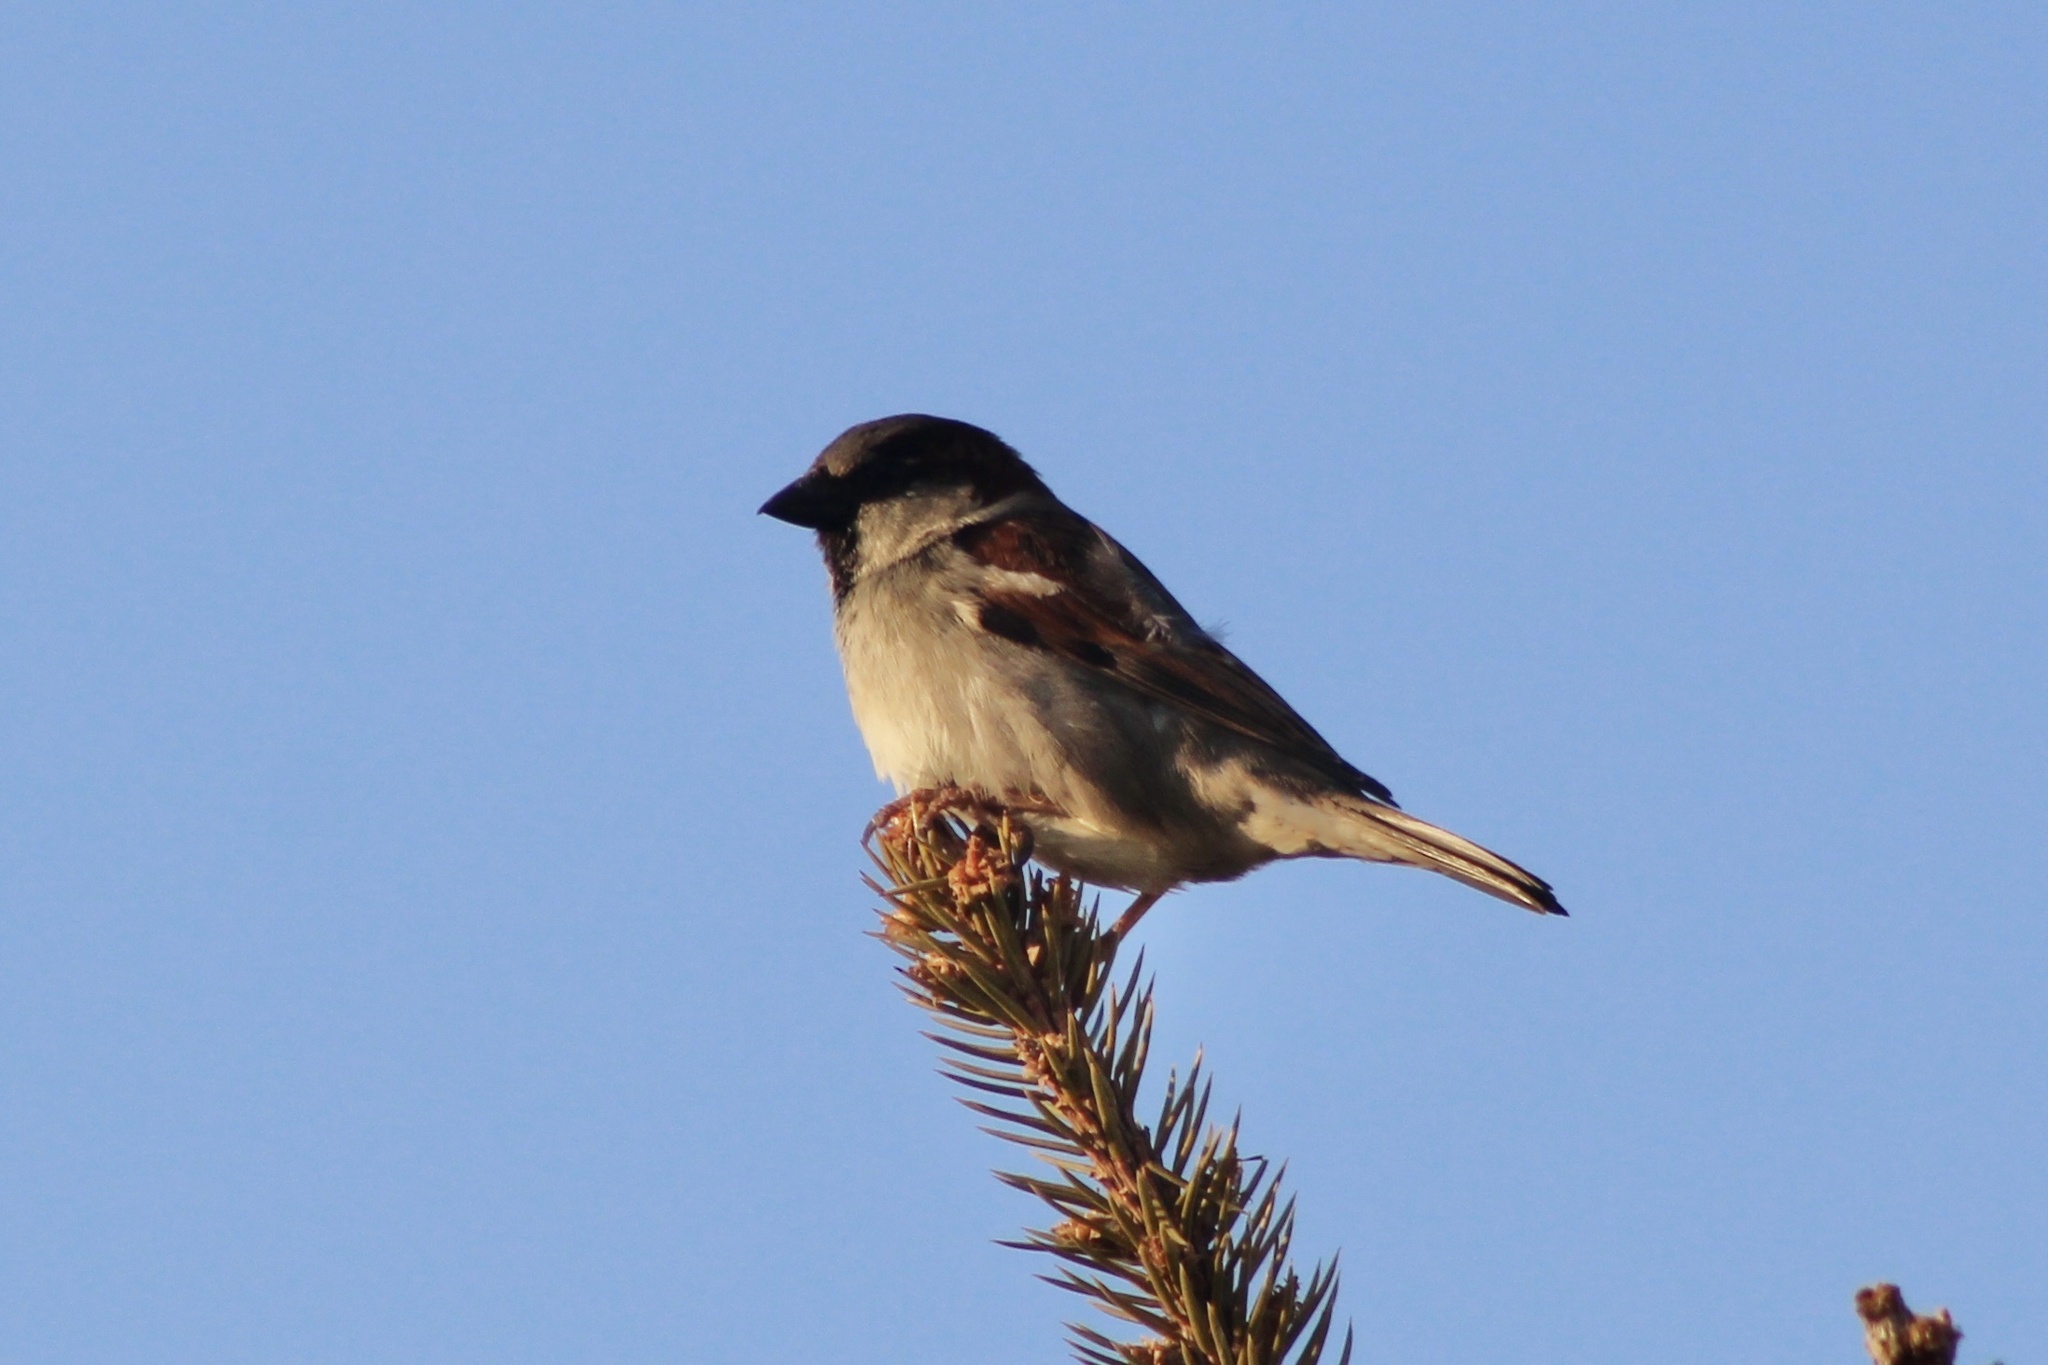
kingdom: Animalia
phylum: Chordata
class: Aves
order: Passeriformes
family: Passeridae
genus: Passer
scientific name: Passer domesticus
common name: House sparrow
